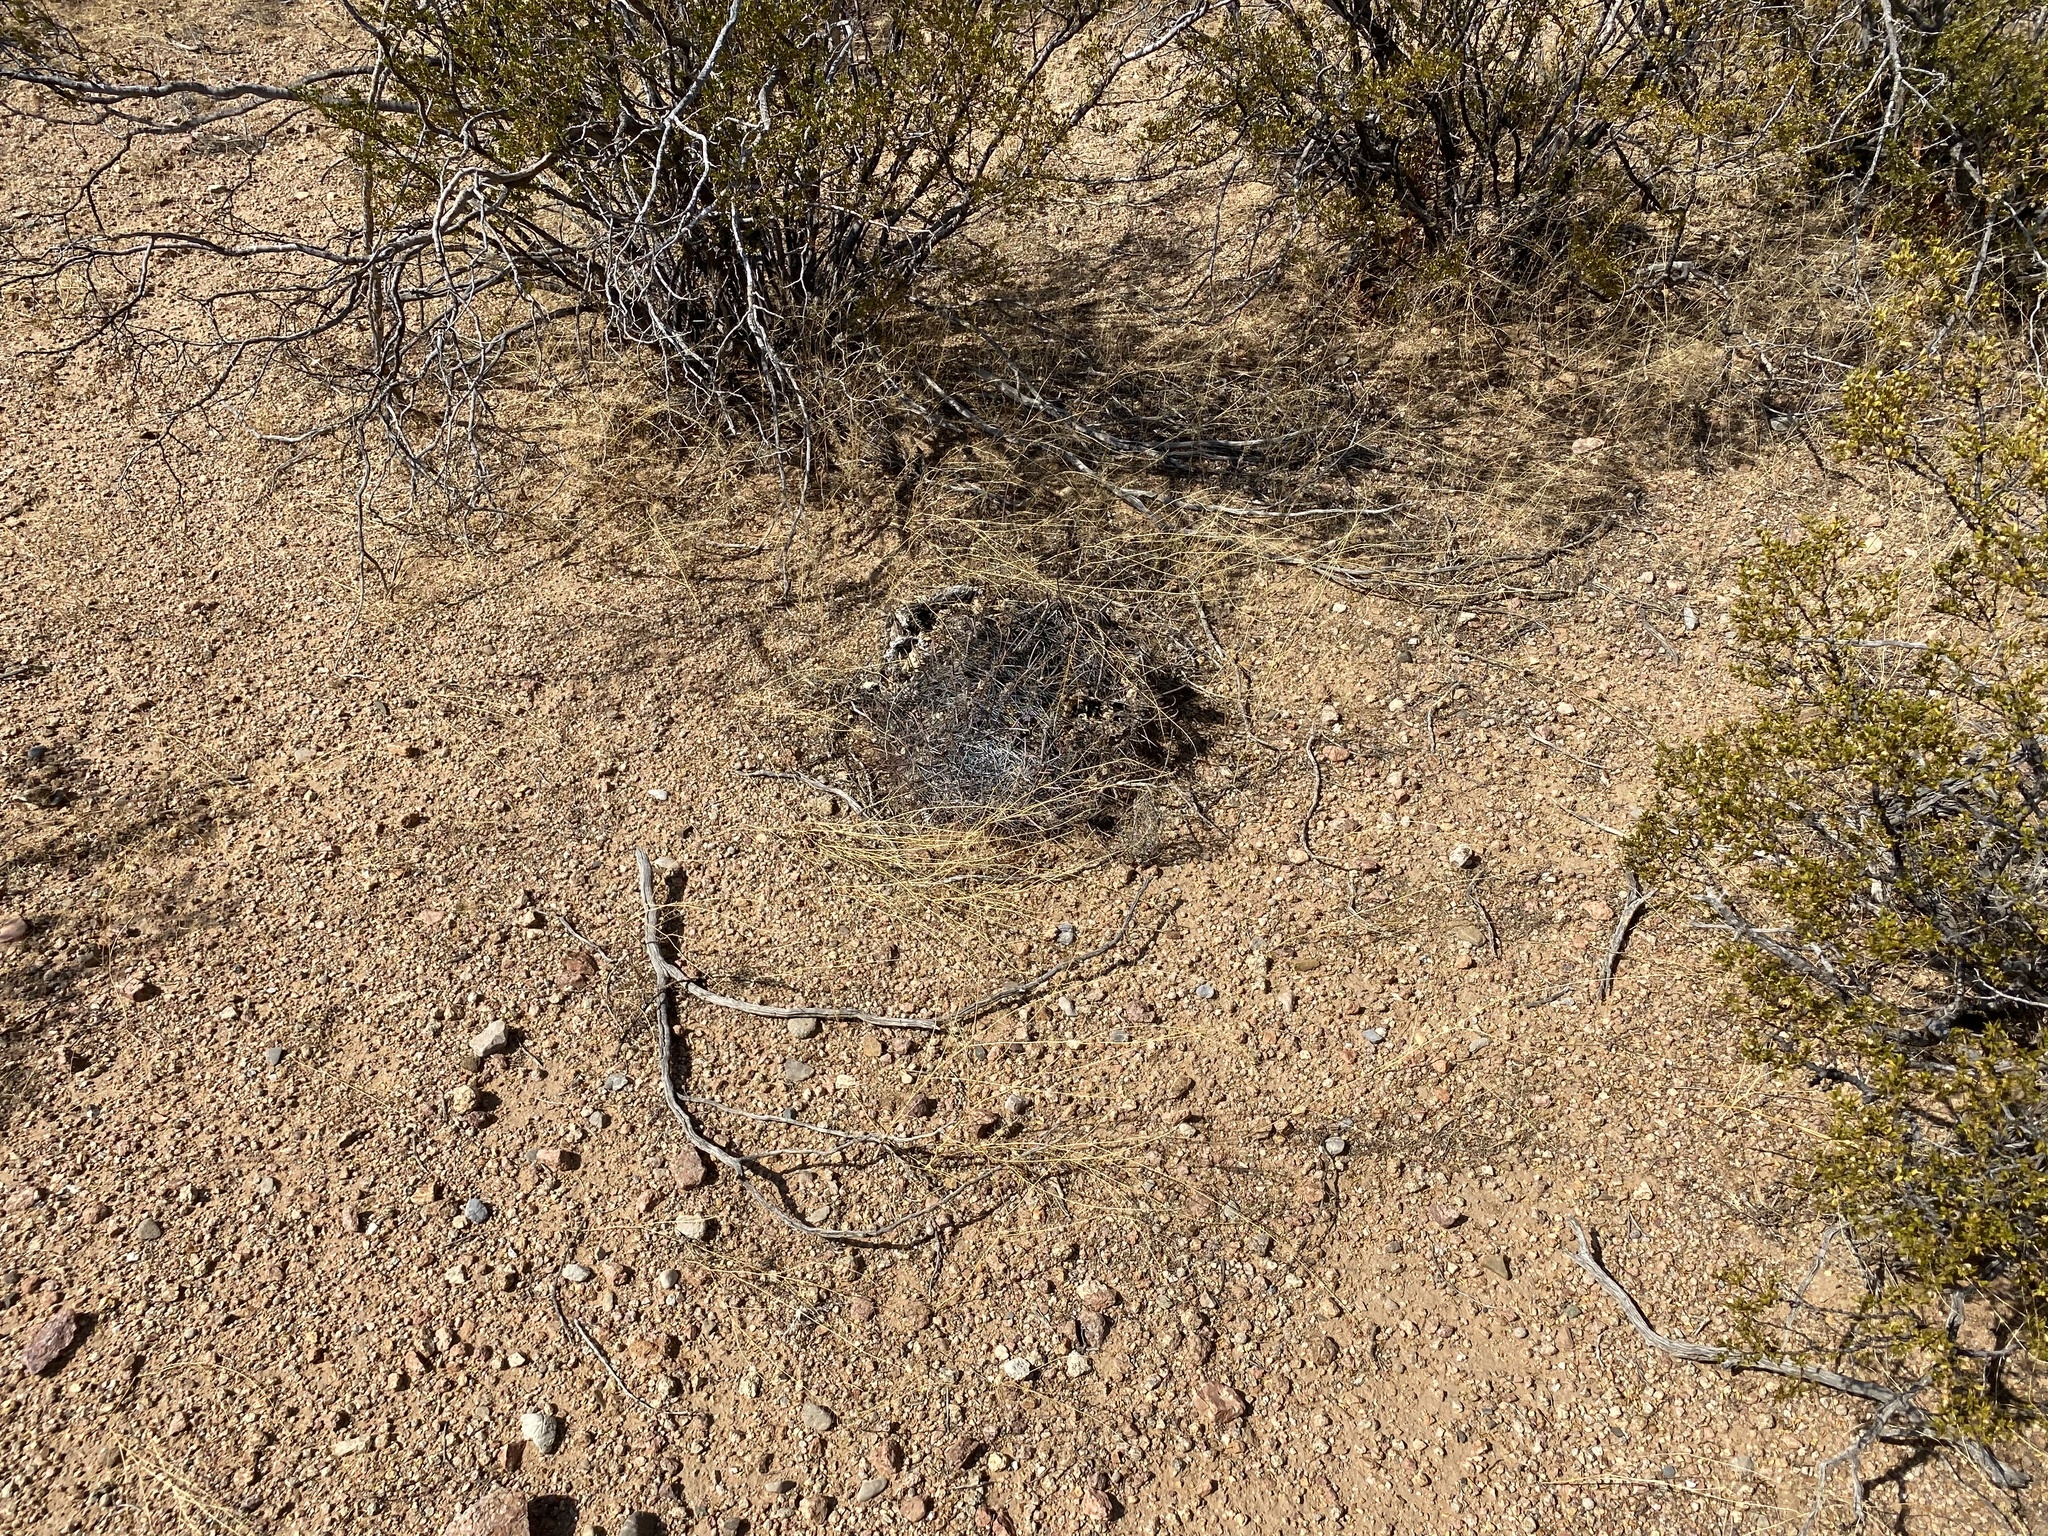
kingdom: Plantae
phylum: Tracheophyta
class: Magnoliopsida
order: Caryophyllales
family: Cactaceae
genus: Ferocactus
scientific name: Ferocactus wislizeni
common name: Candy barrel cactus
